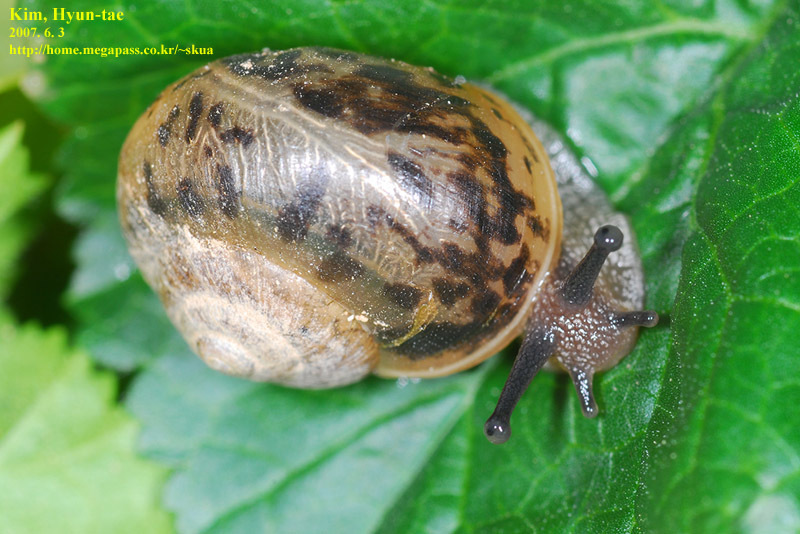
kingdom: Animalia
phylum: Mollusca
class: Gastropoda
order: Stylommatophora
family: Camaenidae
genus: Acusta
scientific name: Acusta redfieldi
